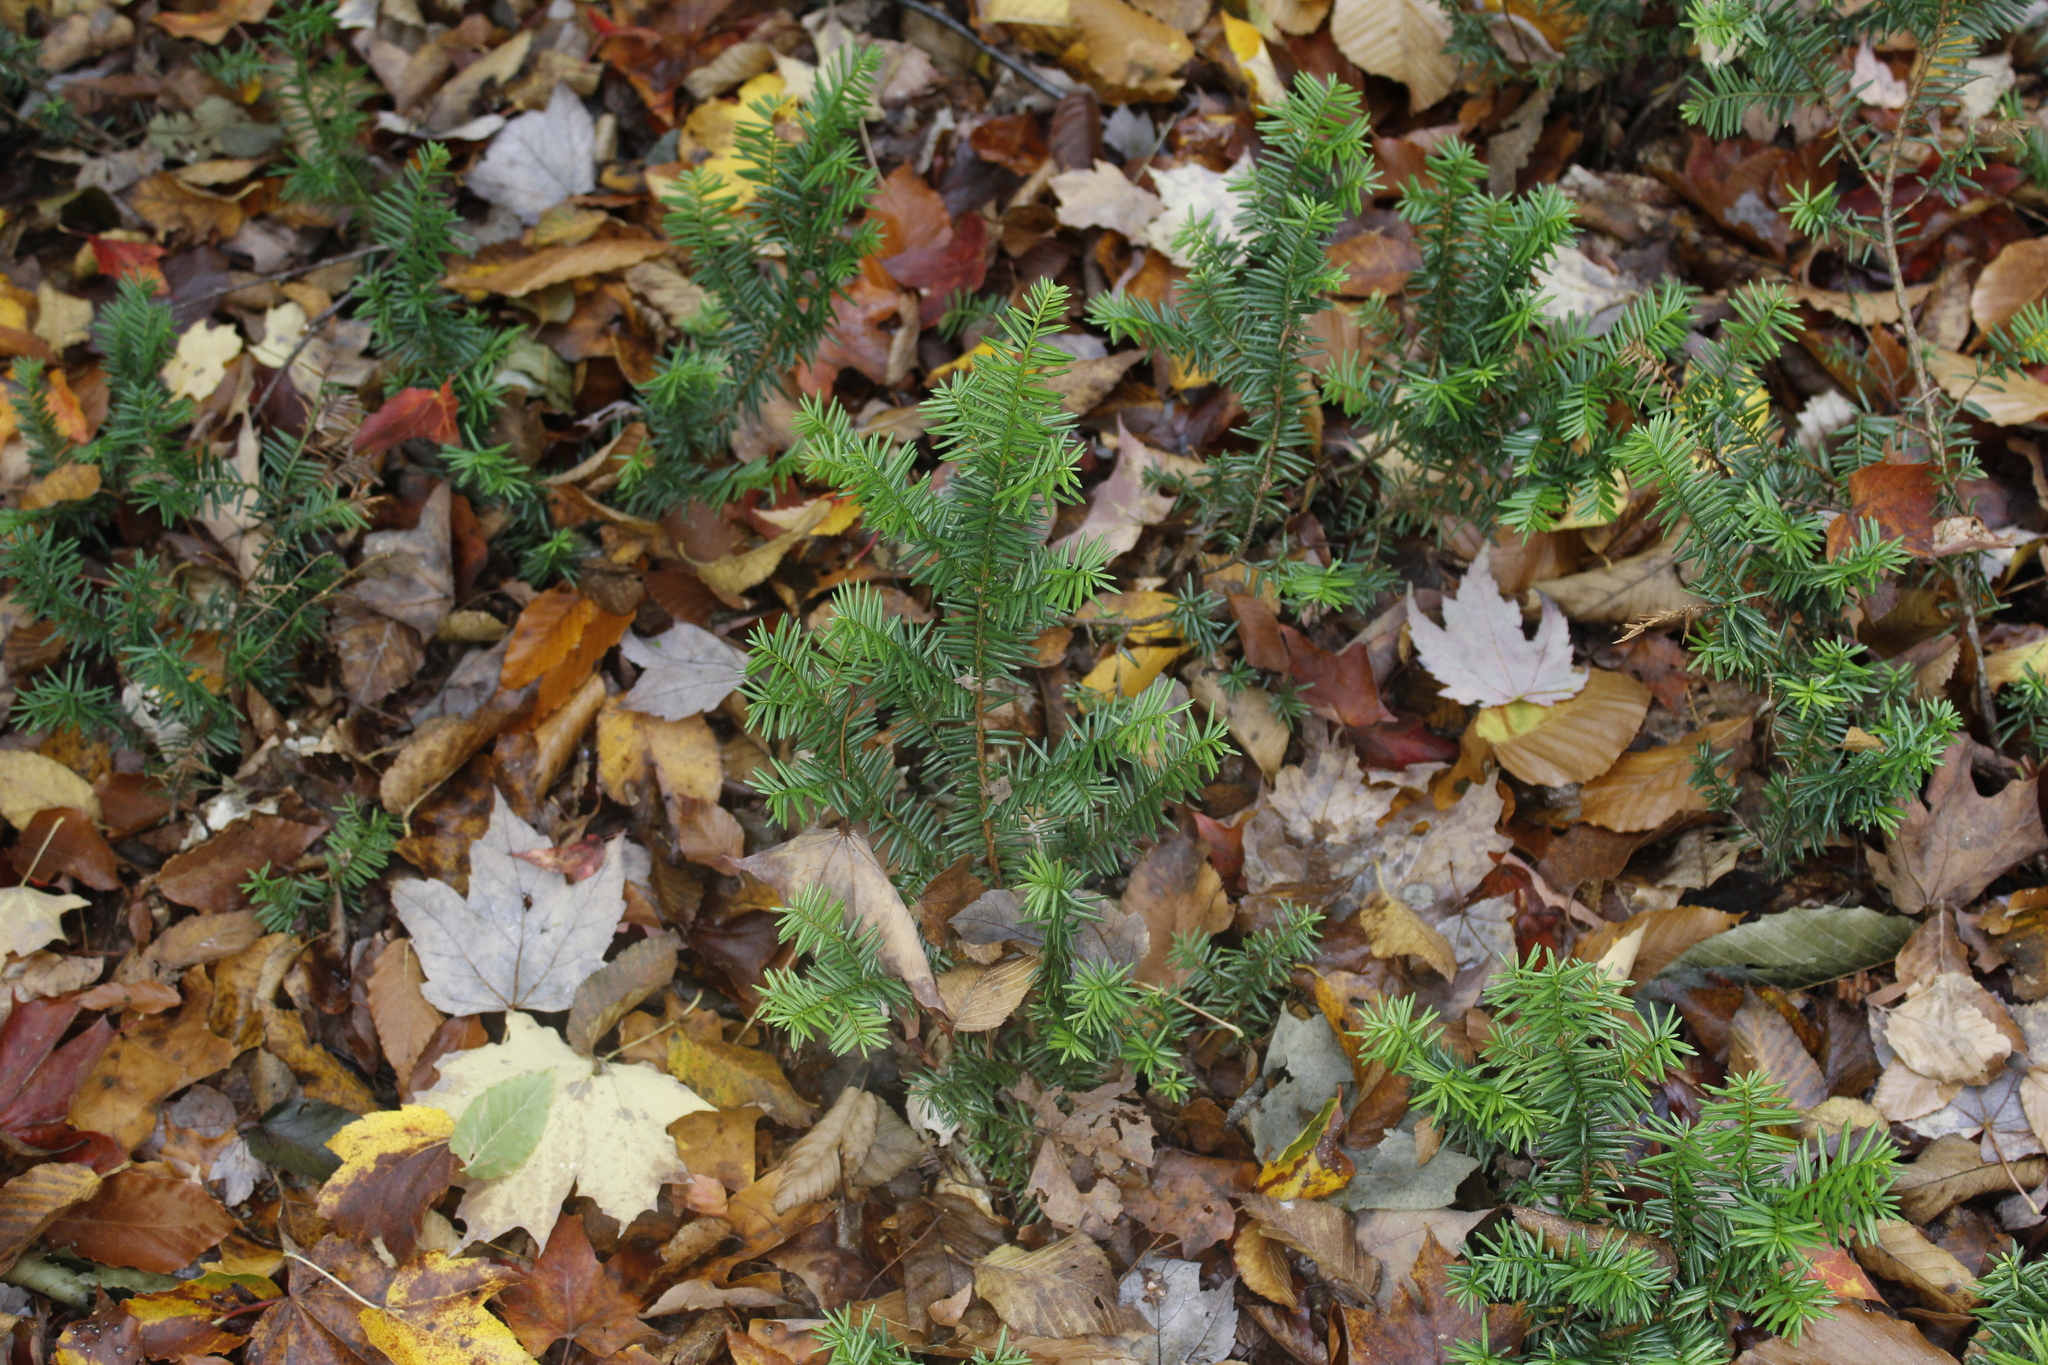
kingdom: Plantae
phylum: Tracheophyta
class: Pinopsida
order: Pinales
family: Taxaceae
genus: Taxus
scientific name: Taxus canadensis
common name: American yew
